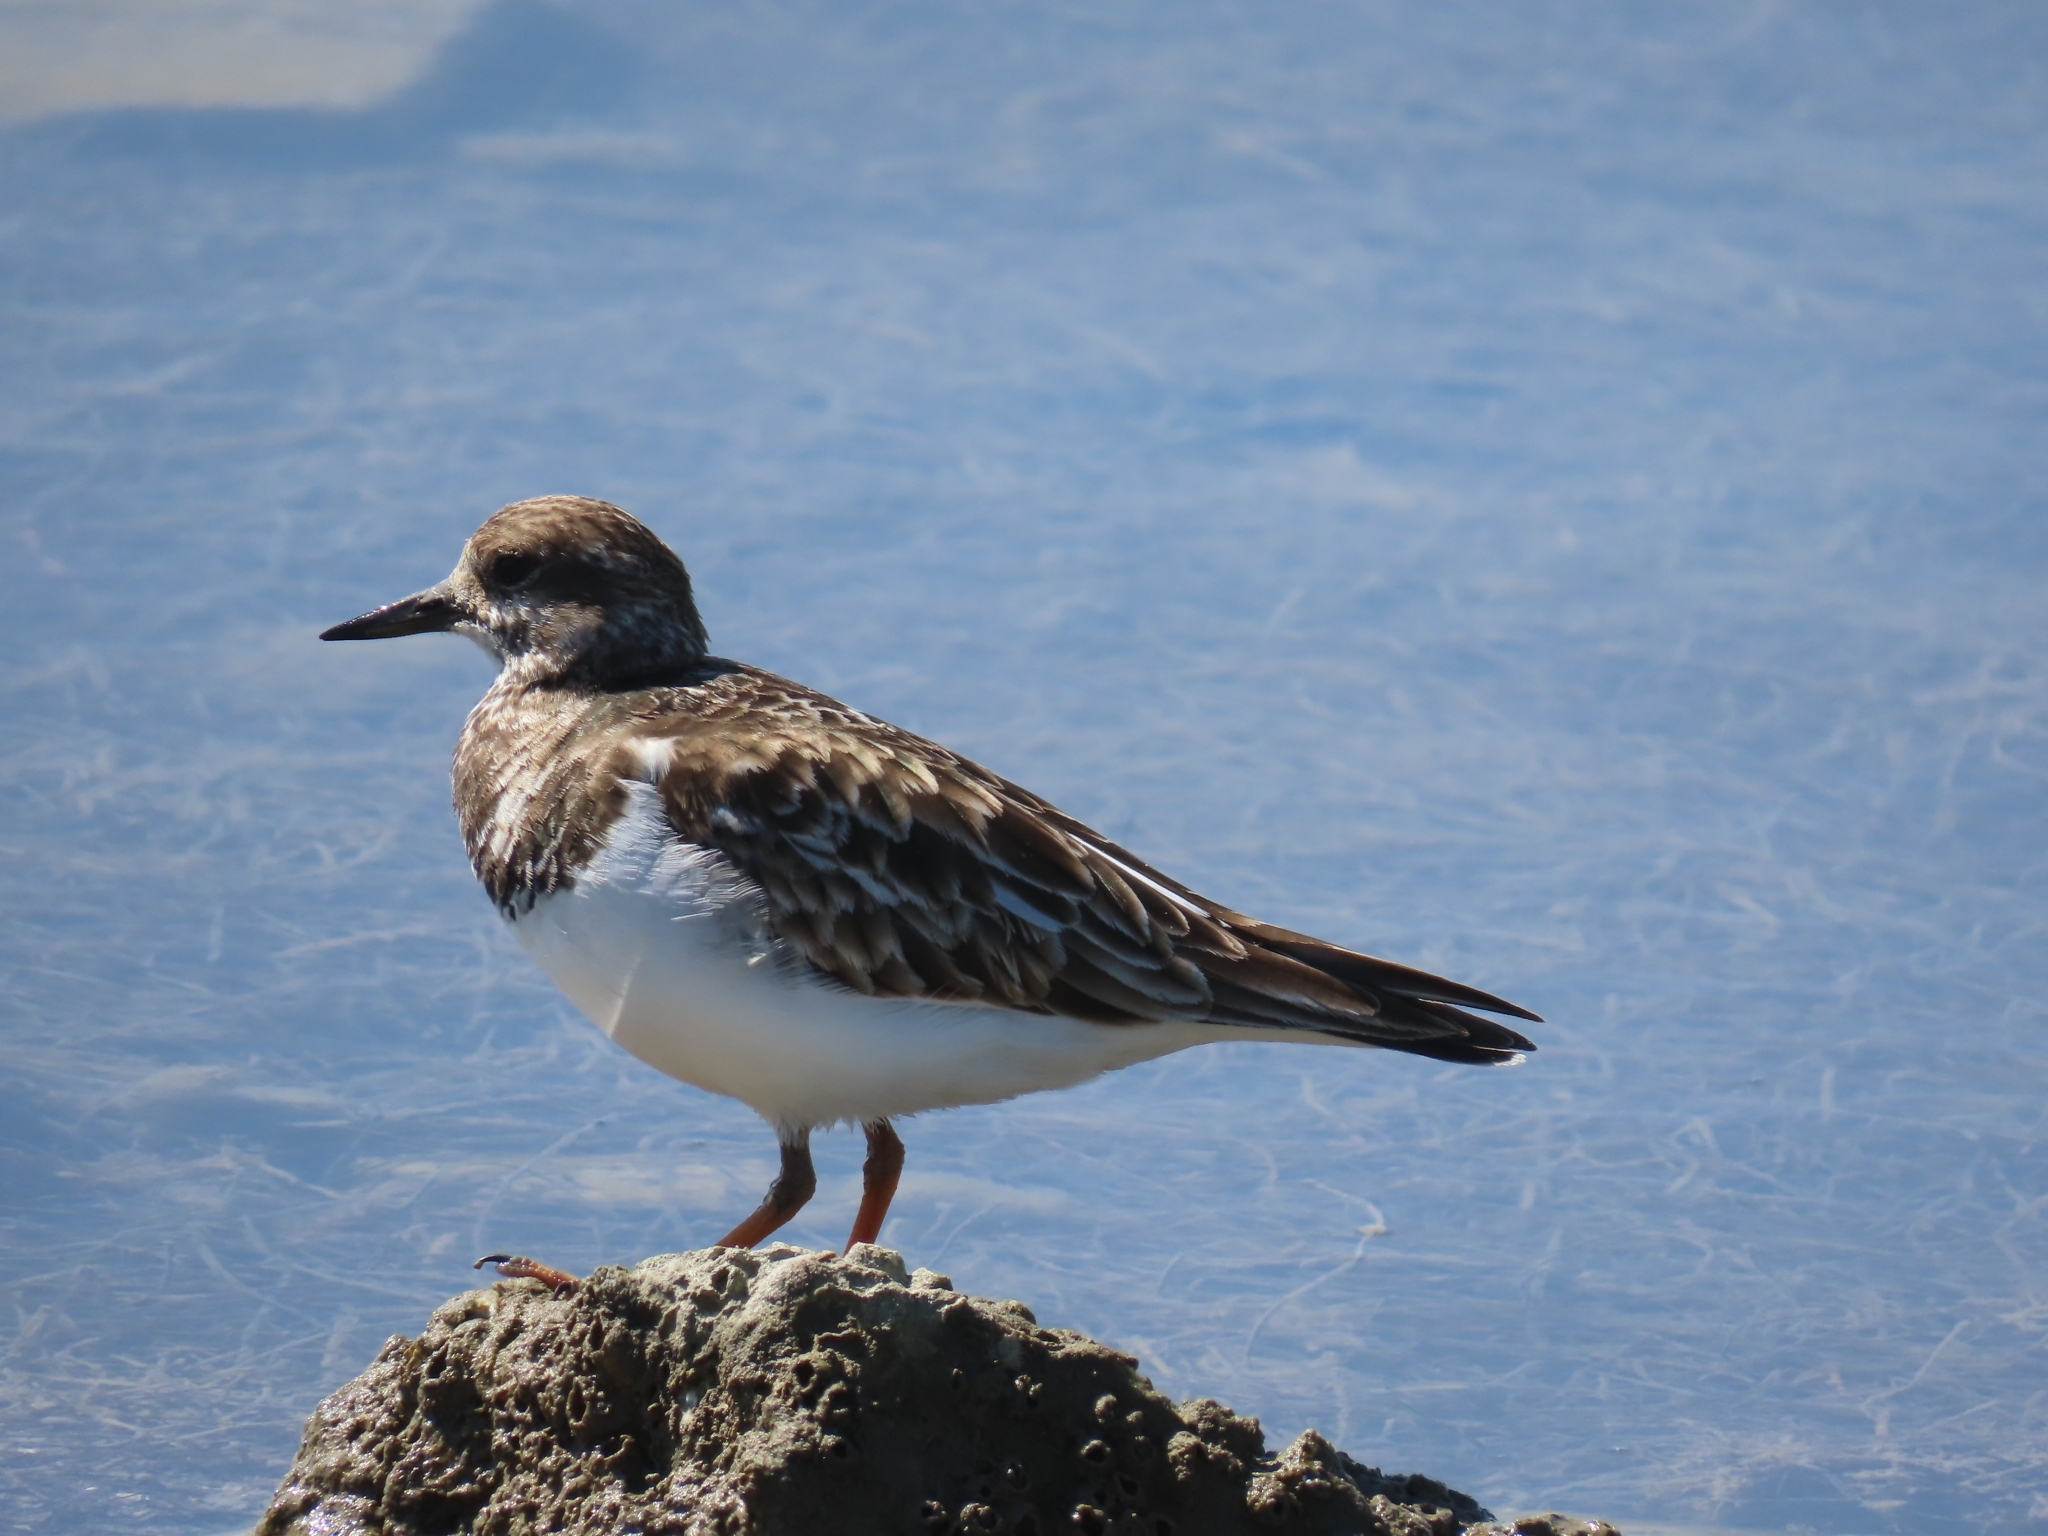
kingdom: Animalia
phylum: Chordata
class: Aves
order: Charadriiformes
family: Scolopacidae
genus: Arenaria
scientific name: Arenaria interpres
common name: Ruddy turnstone
